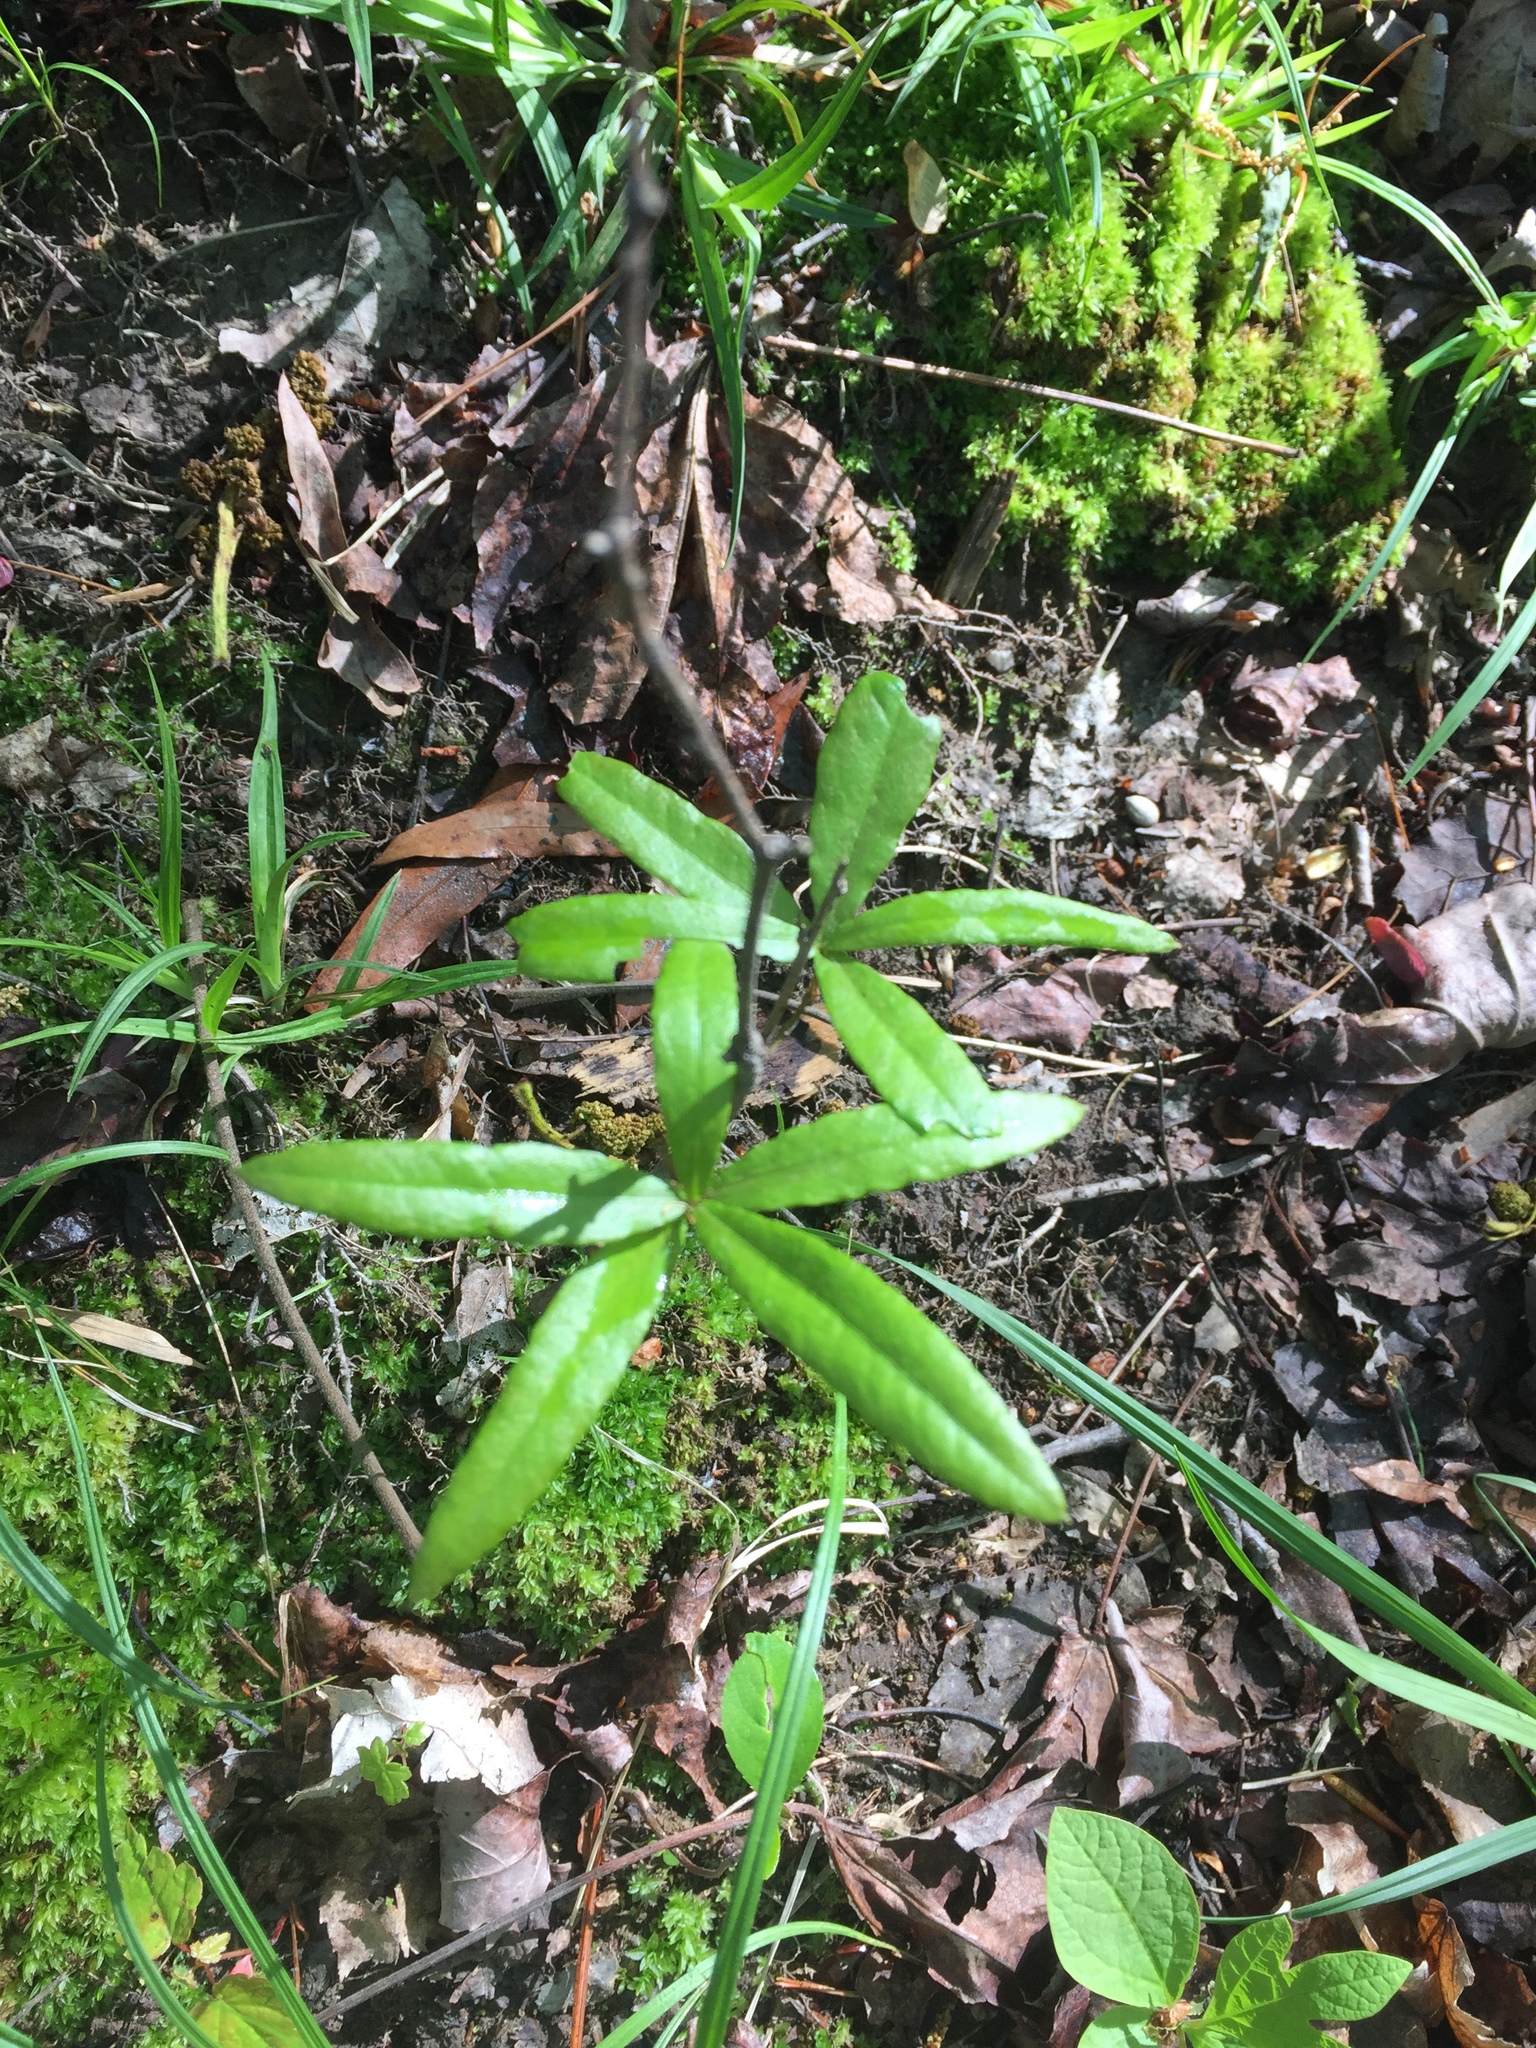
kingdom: Plantae
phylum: Tracheophyta
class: Magnoliopsida
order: Fagales
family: Fagaceae
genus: Quercus
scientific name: Quercus phellos
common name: Willow oak
